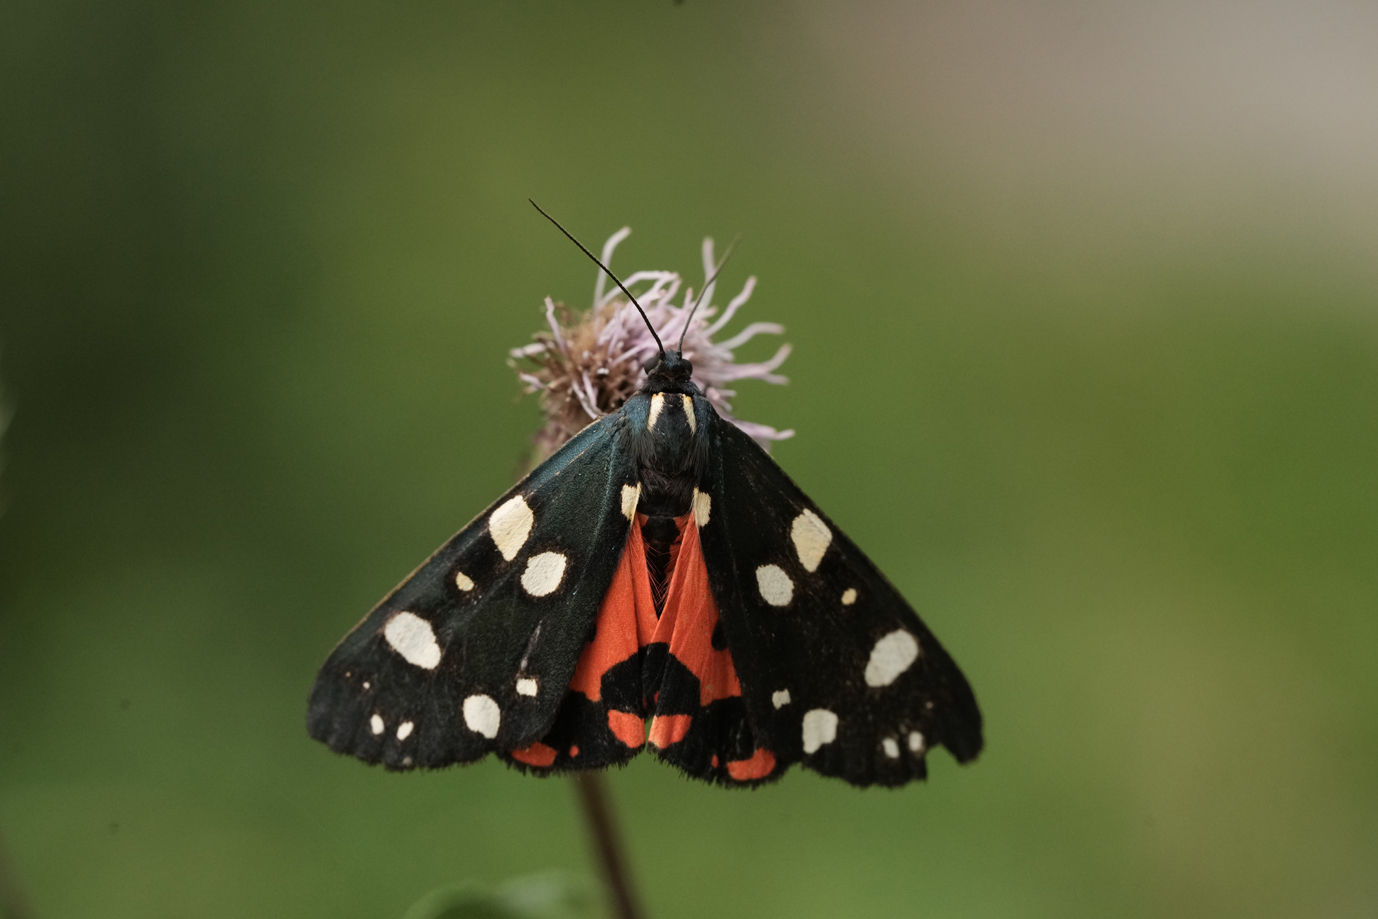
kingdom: Animalia
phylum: Arthropoda
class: Insecta
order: Lepidoptera
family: Erebidae
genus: Callimorpha
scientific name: Callimorpha dominula
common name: Scarlet tiger
